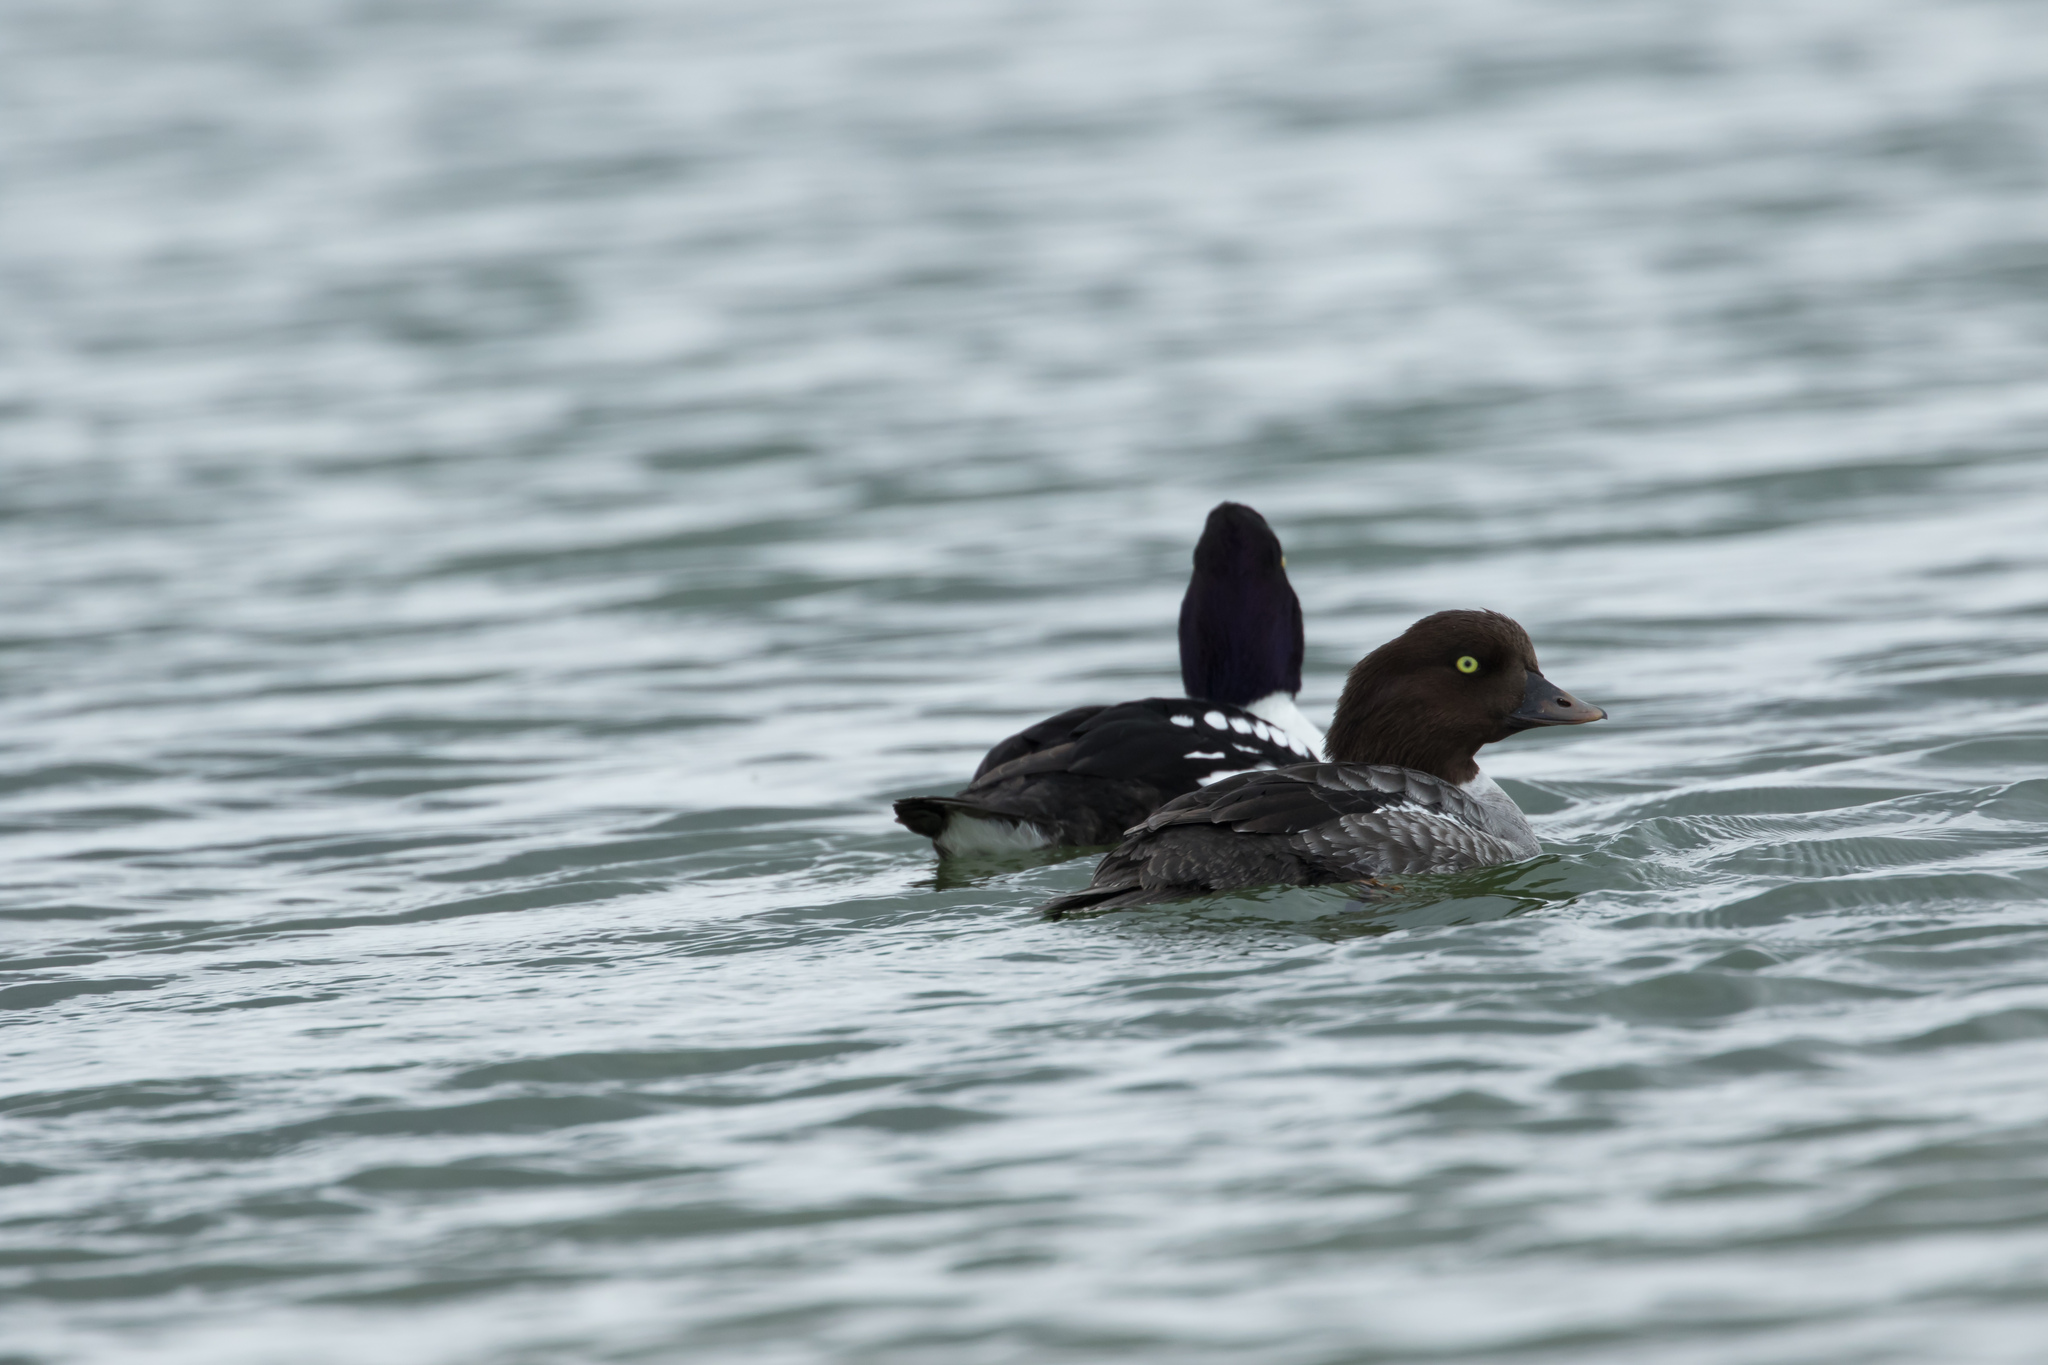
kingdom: Animalia
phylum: Chordata
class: Aves
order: Anseriformes
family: Anatidae
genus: Bucephala
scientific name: Bucephala islandica
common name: Barrow's goldeneye
